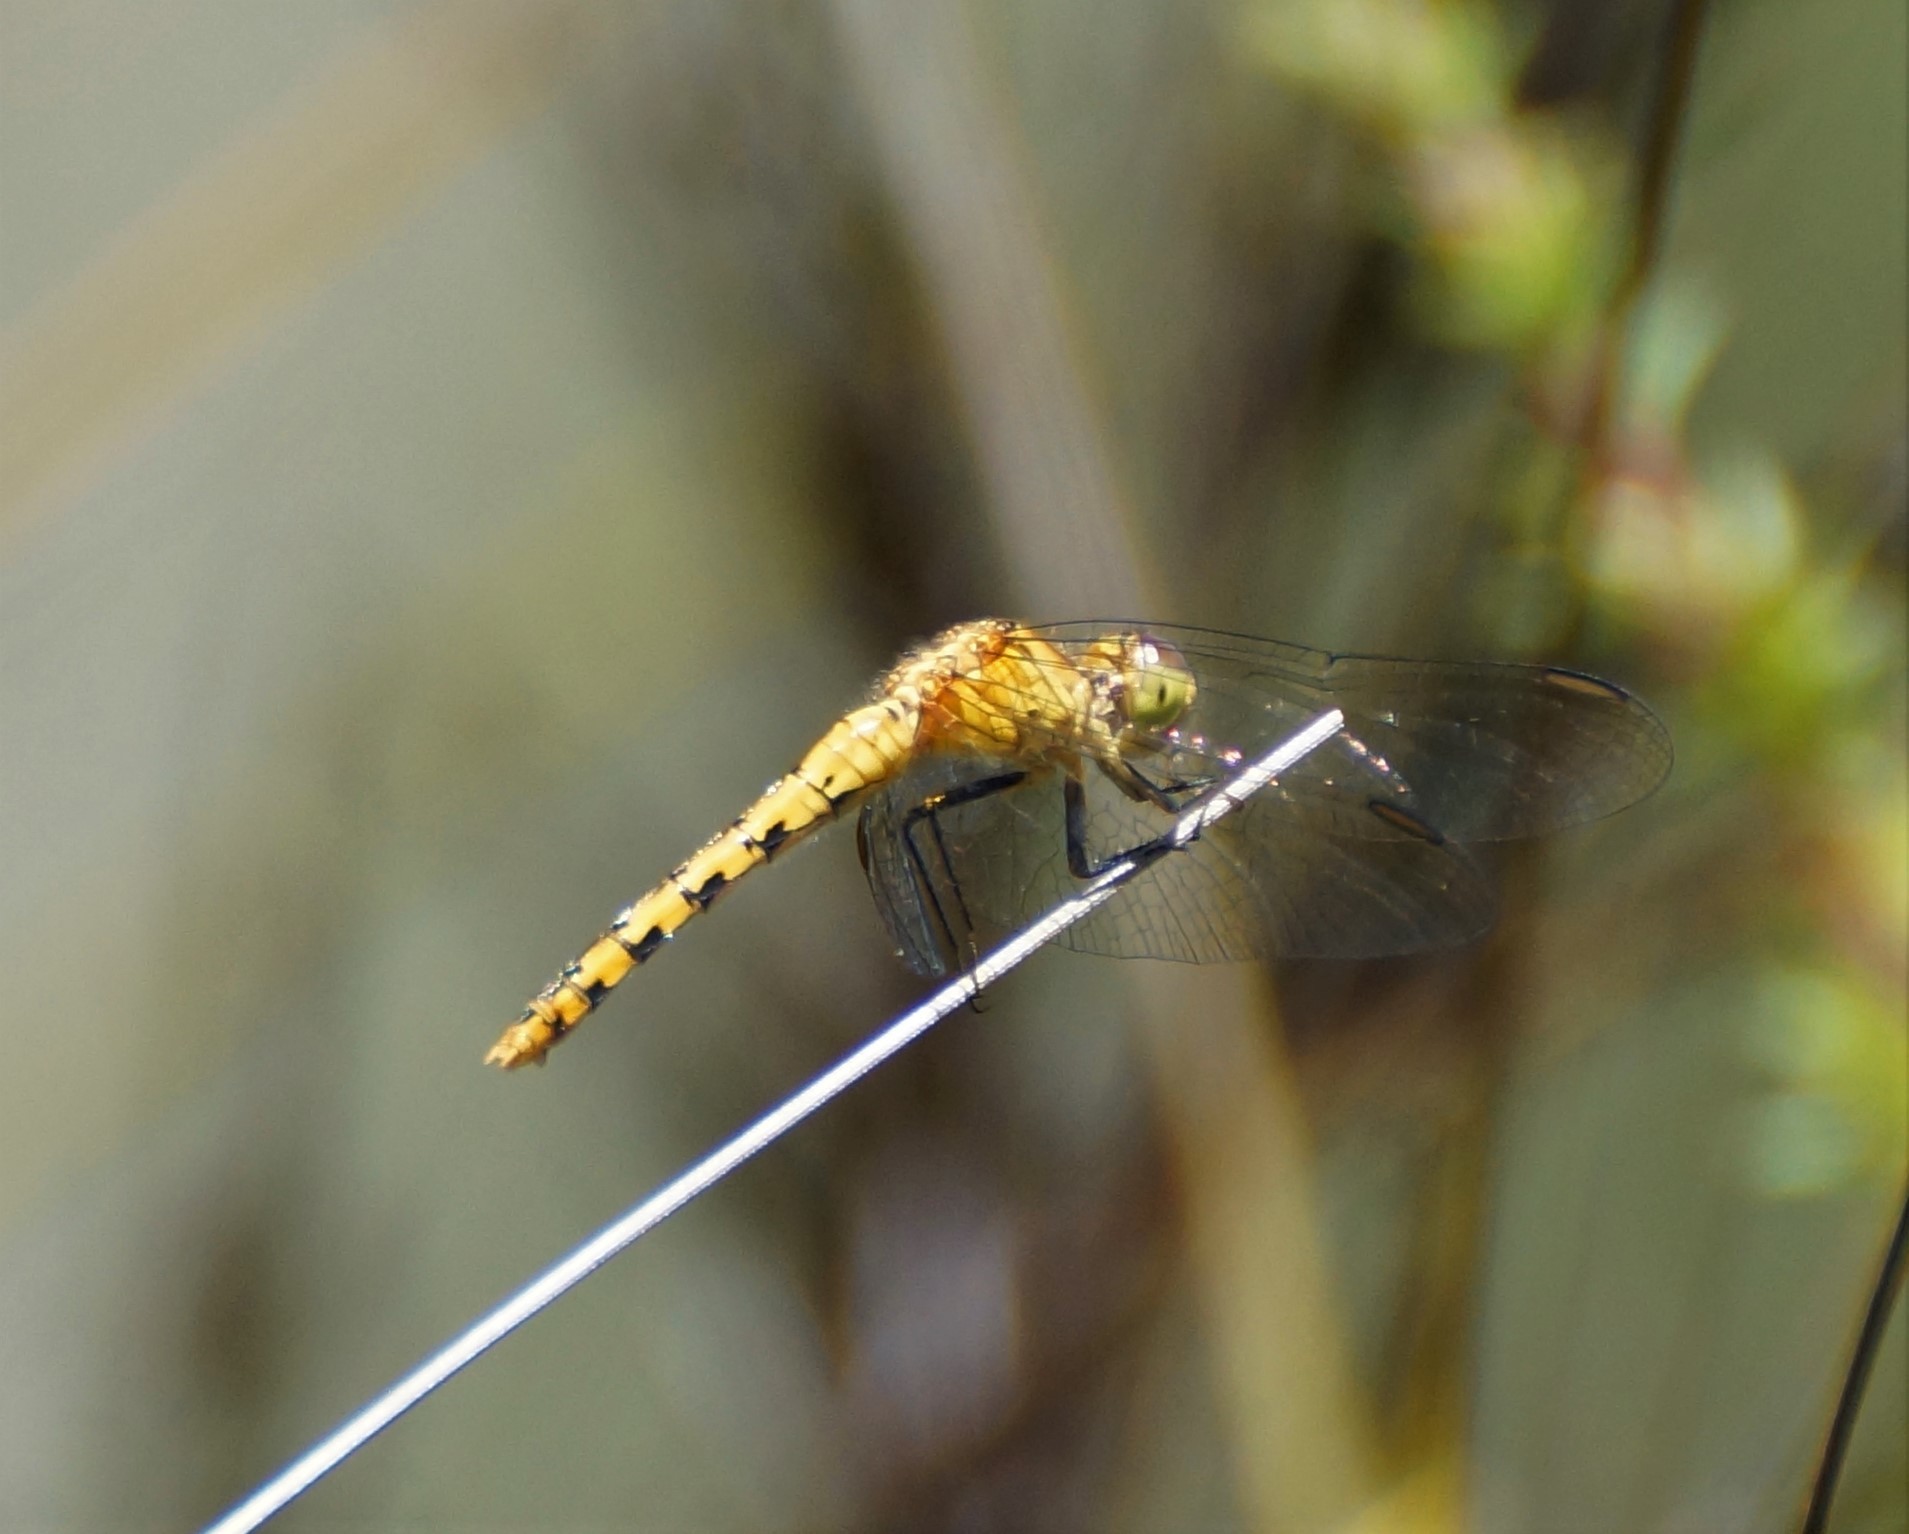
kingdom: Animalia
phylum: Arthropoda
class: Insecta
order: Odonata
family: Libellulidae
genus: Diplacodes
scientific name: Diplacodes melanopsis
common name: Black-faced percher
